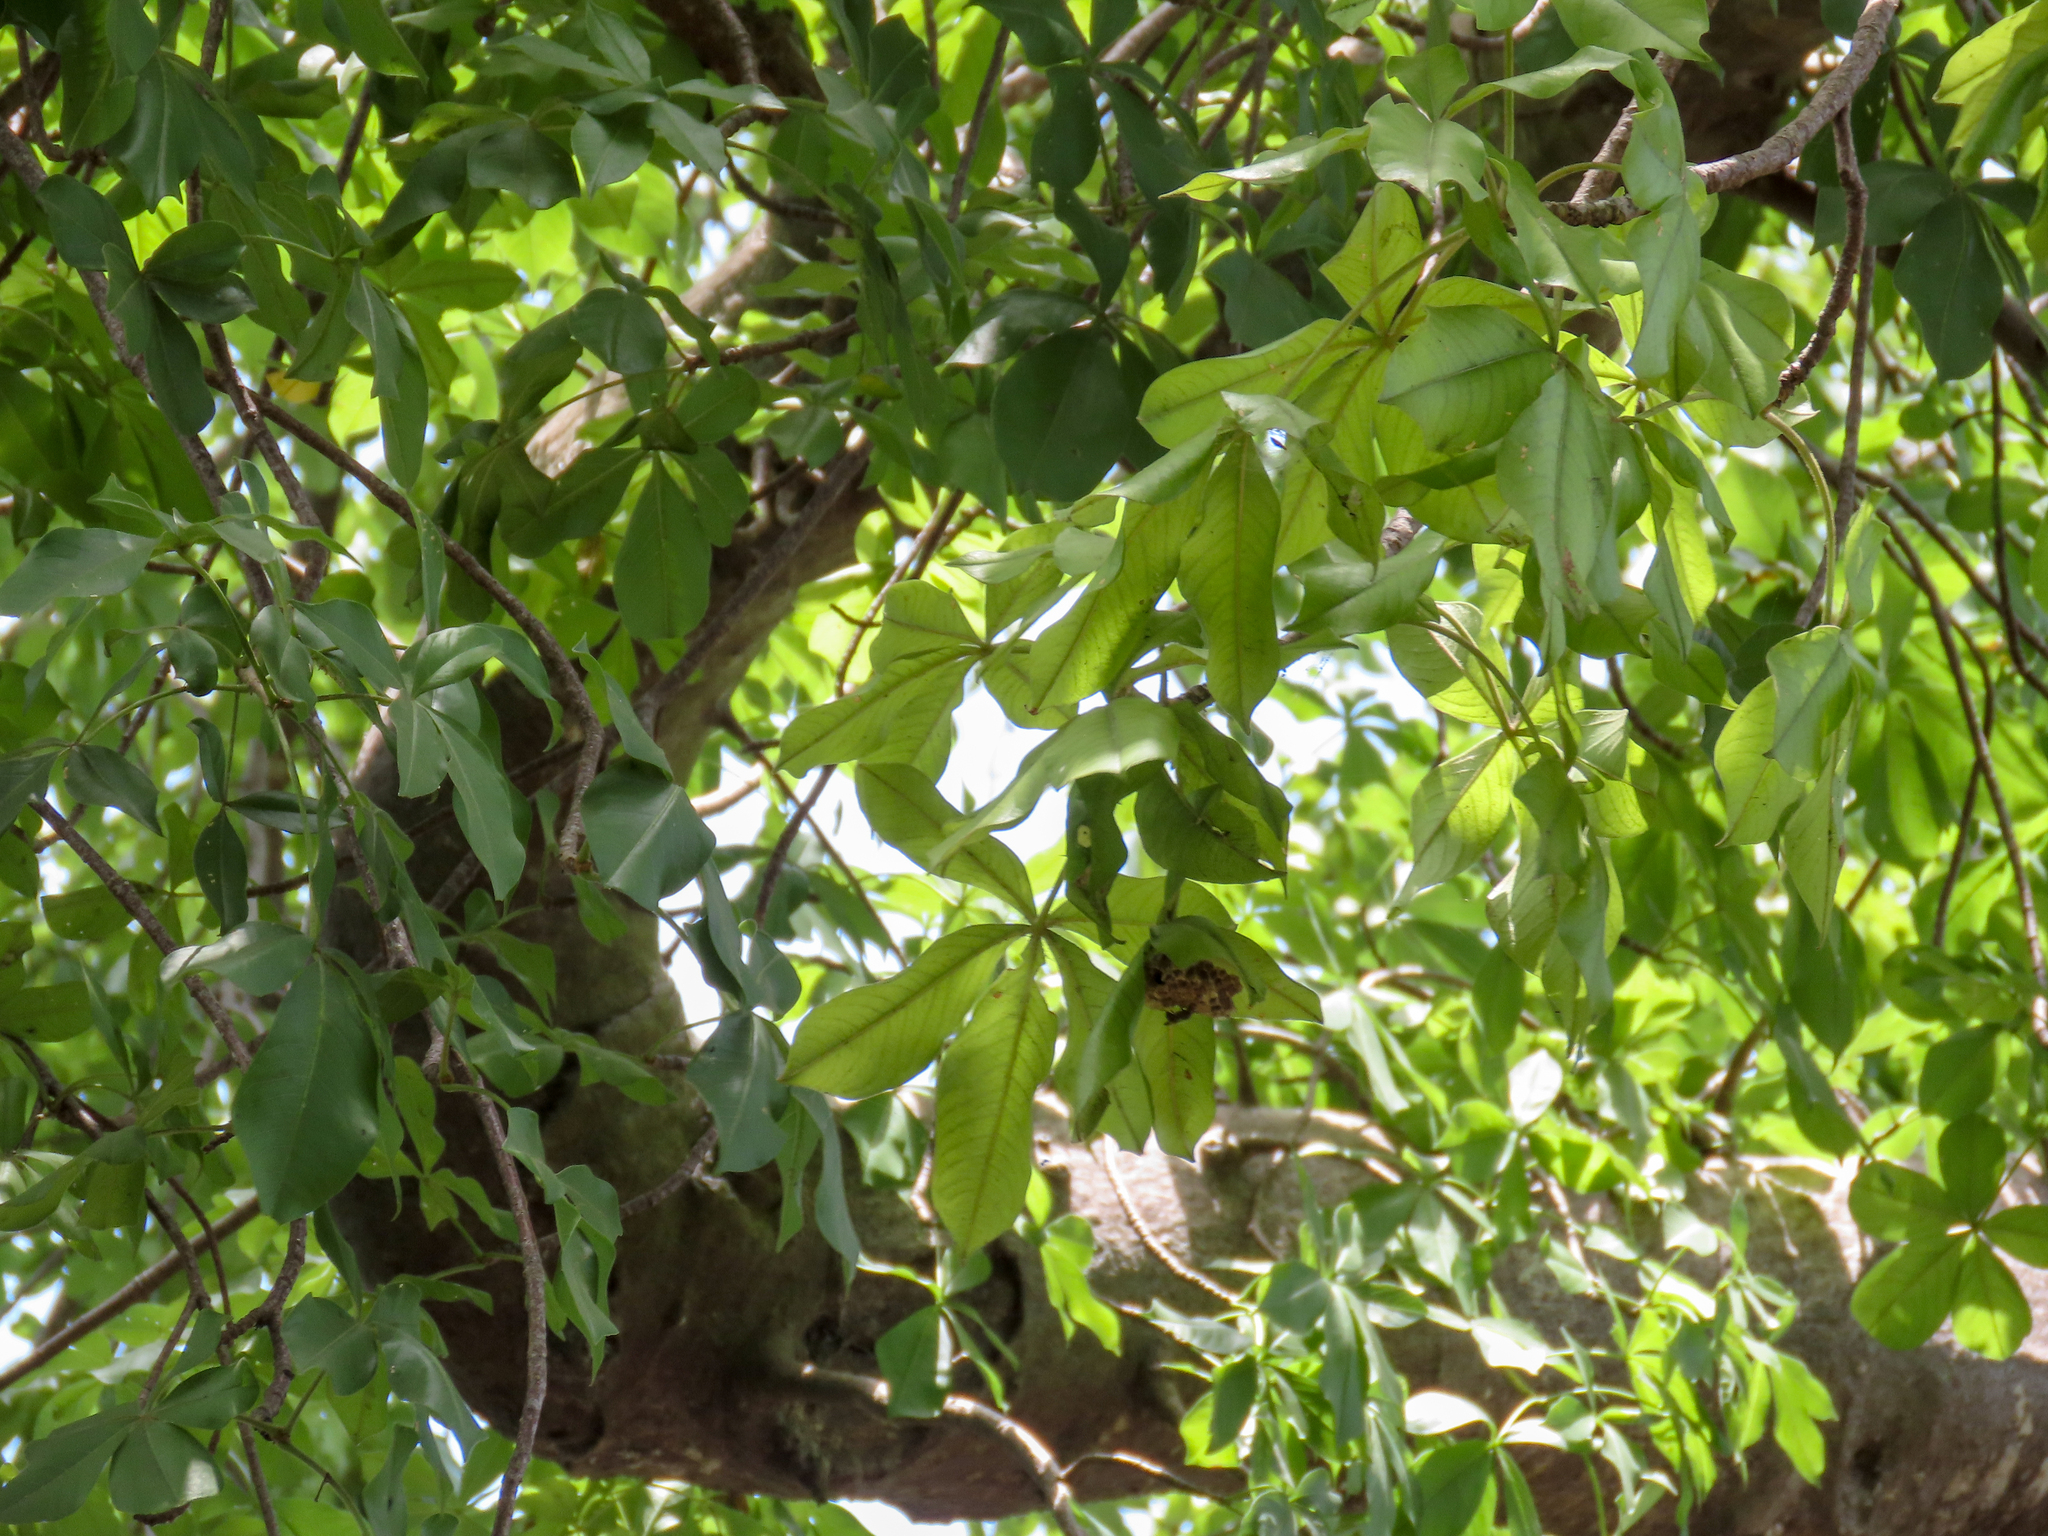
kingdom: Plantae
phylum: Tracheophyta
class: Magnoliopsida
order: Malvales
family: Malvaceae
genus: Adansonia
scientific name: Adansonia digitata
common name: Dead-rat-tree
